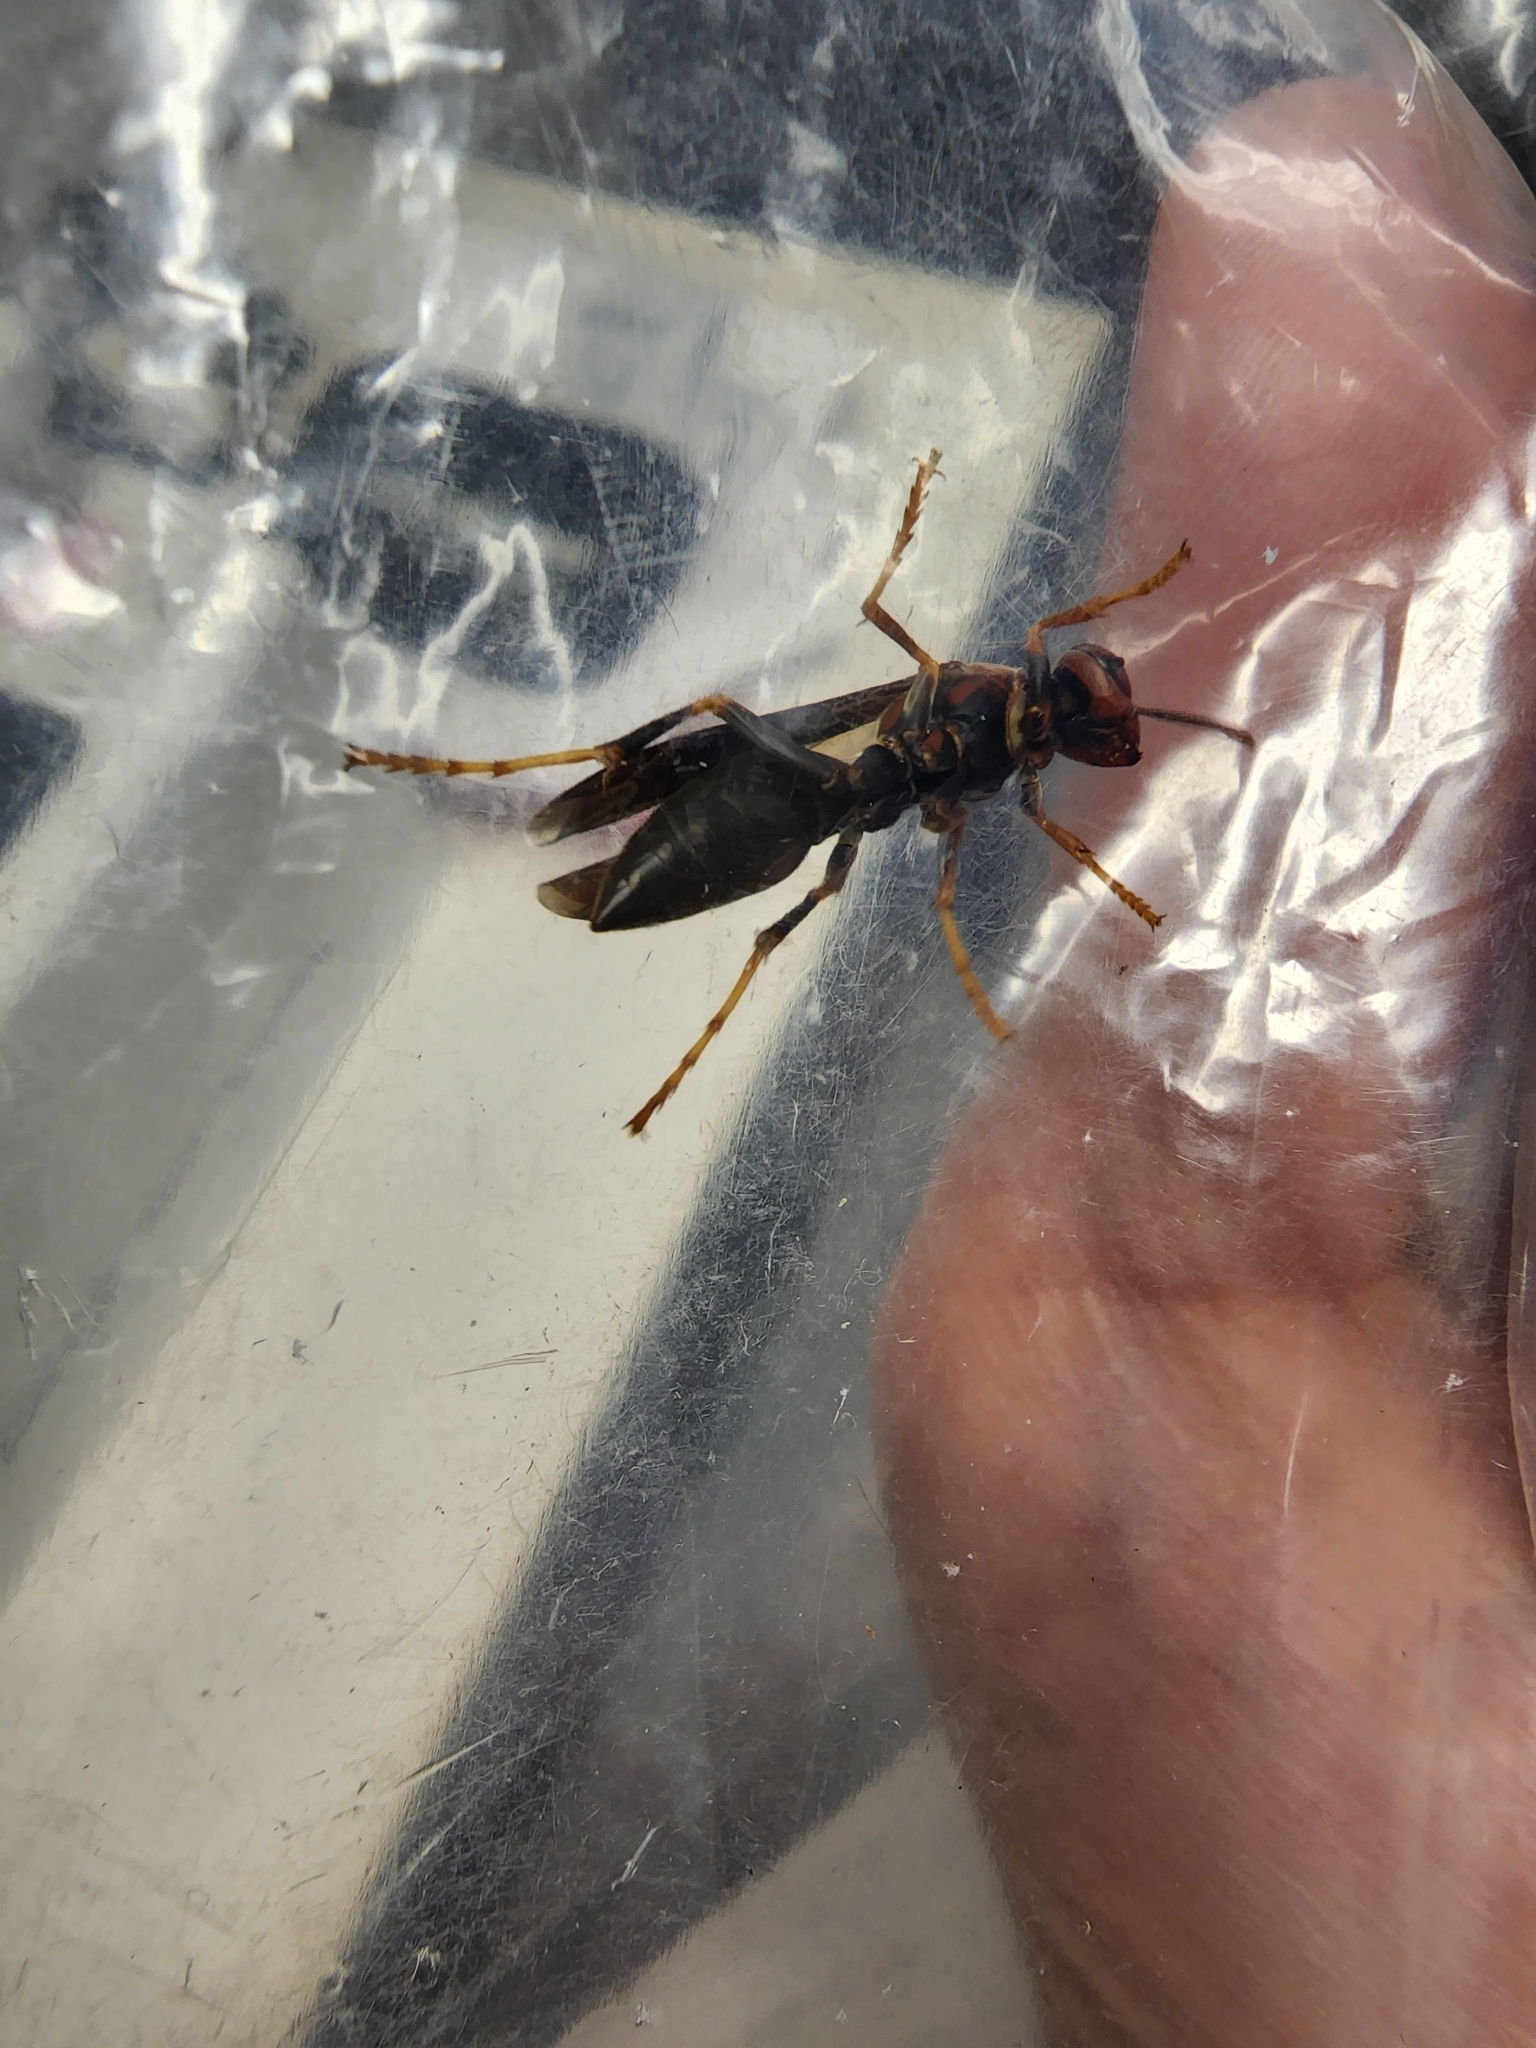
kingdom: Animalia
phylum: Arthropoda
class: Insecta
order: Hymenoptera
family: Eumenidae
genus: Polistes
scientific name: Polistes metricus
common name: Metric paper wasp
